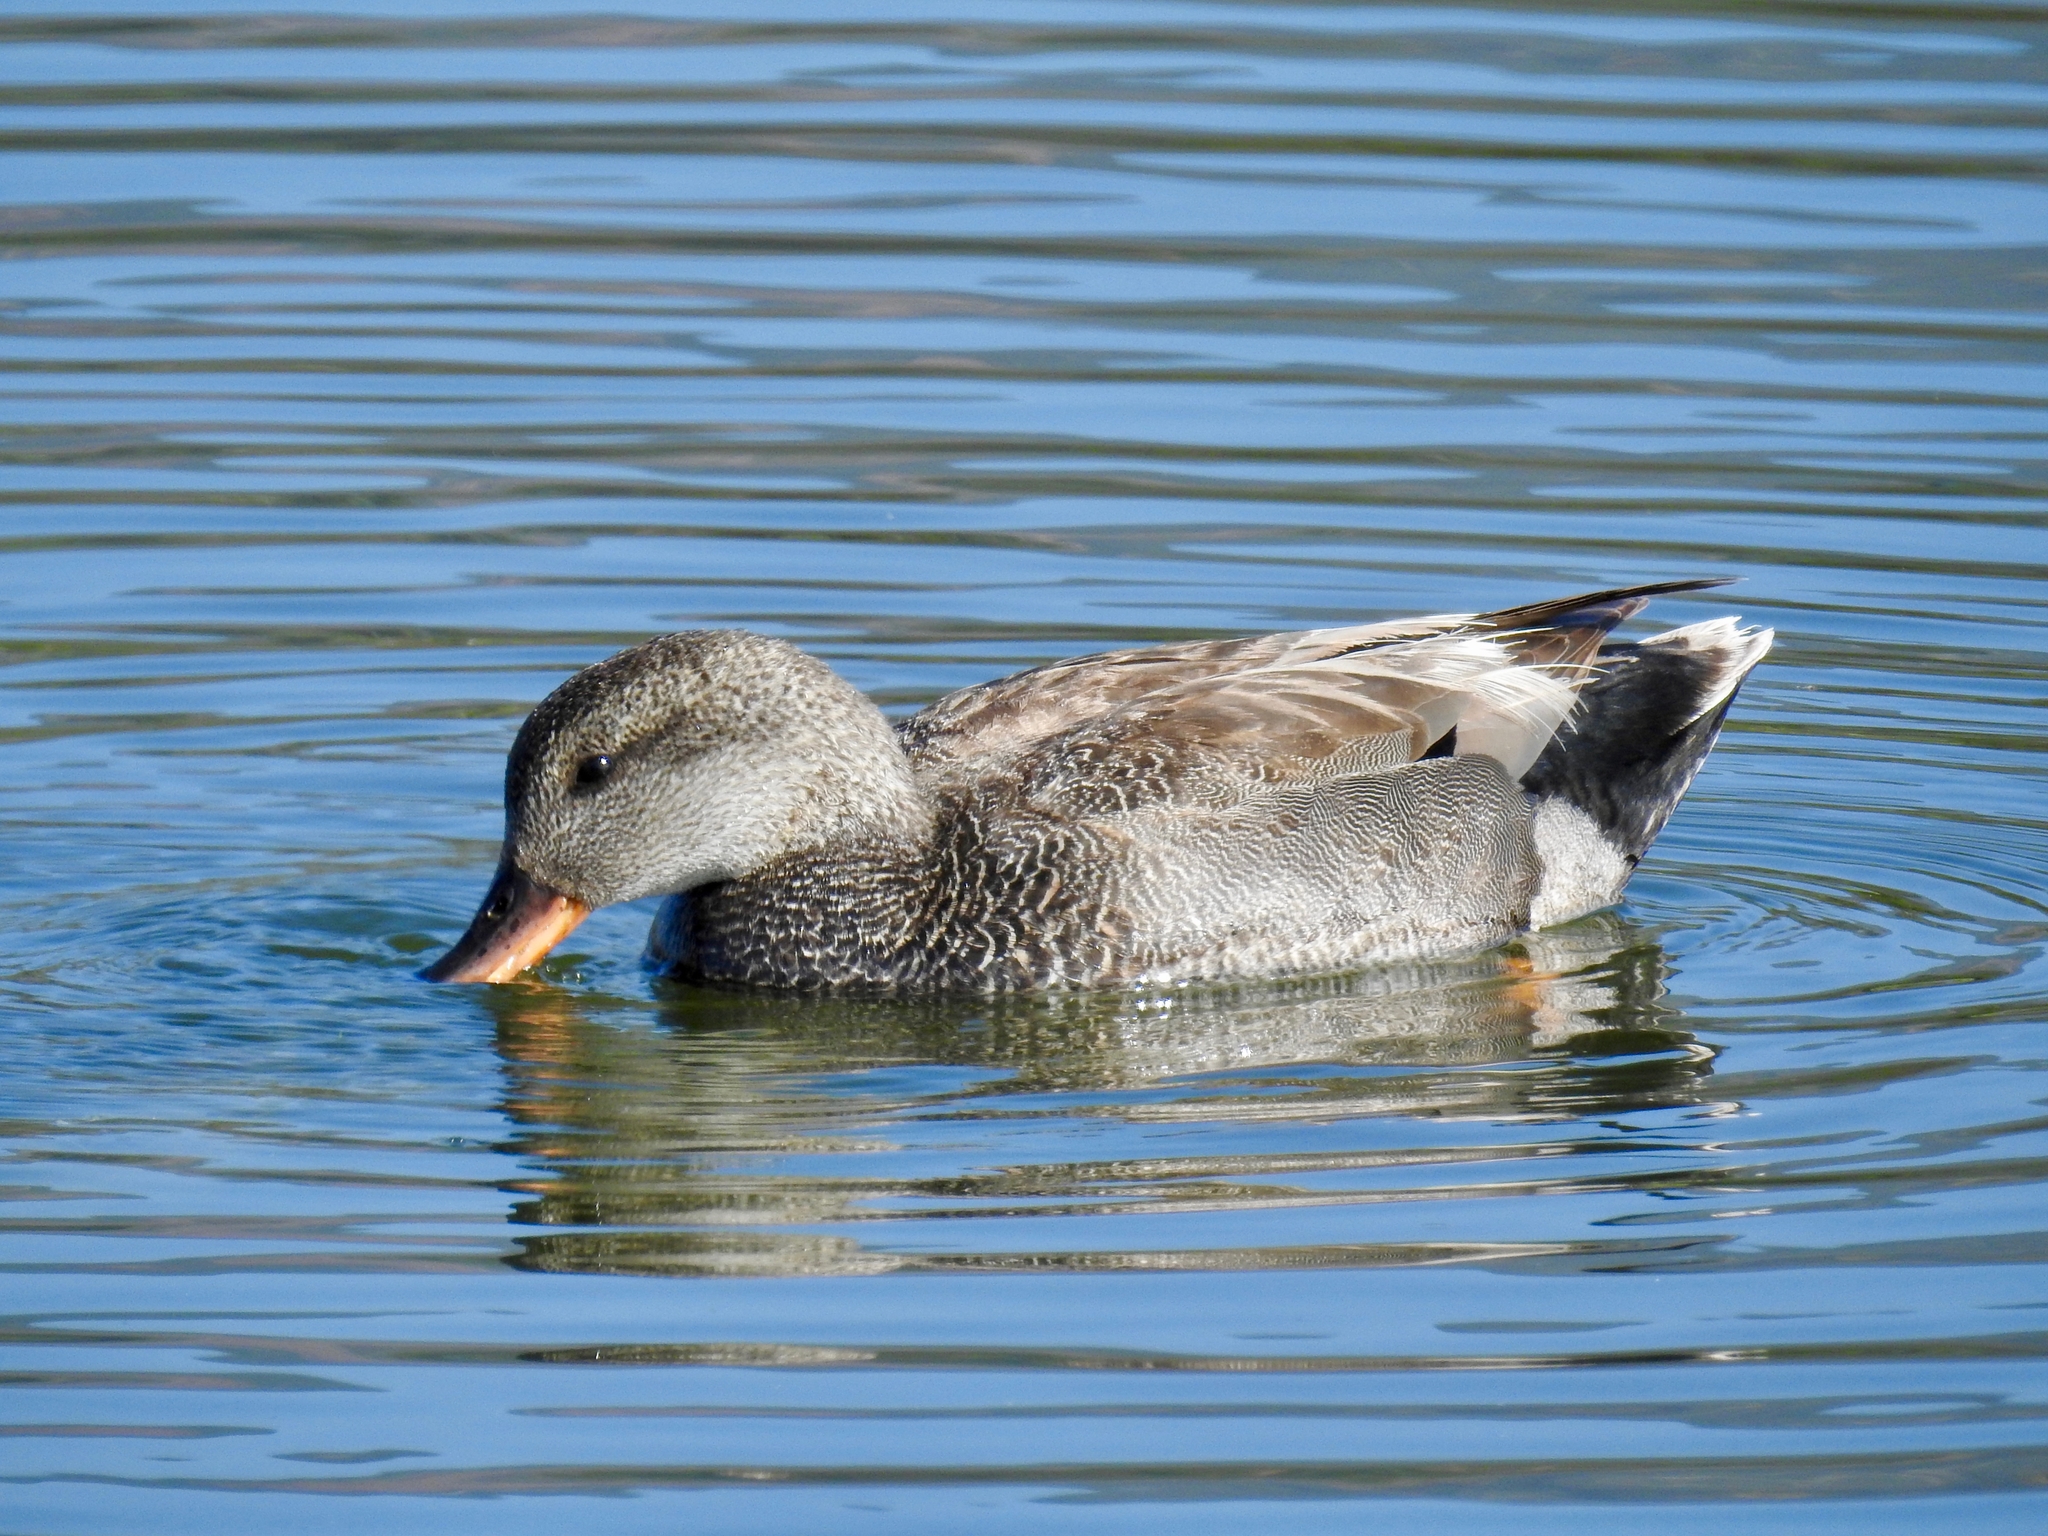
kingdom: Animalia
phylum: Chordata
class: Aves
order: Anseriformes
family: Anatidae
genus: Mareca
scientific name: Mareca strepera
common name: Gadwall
